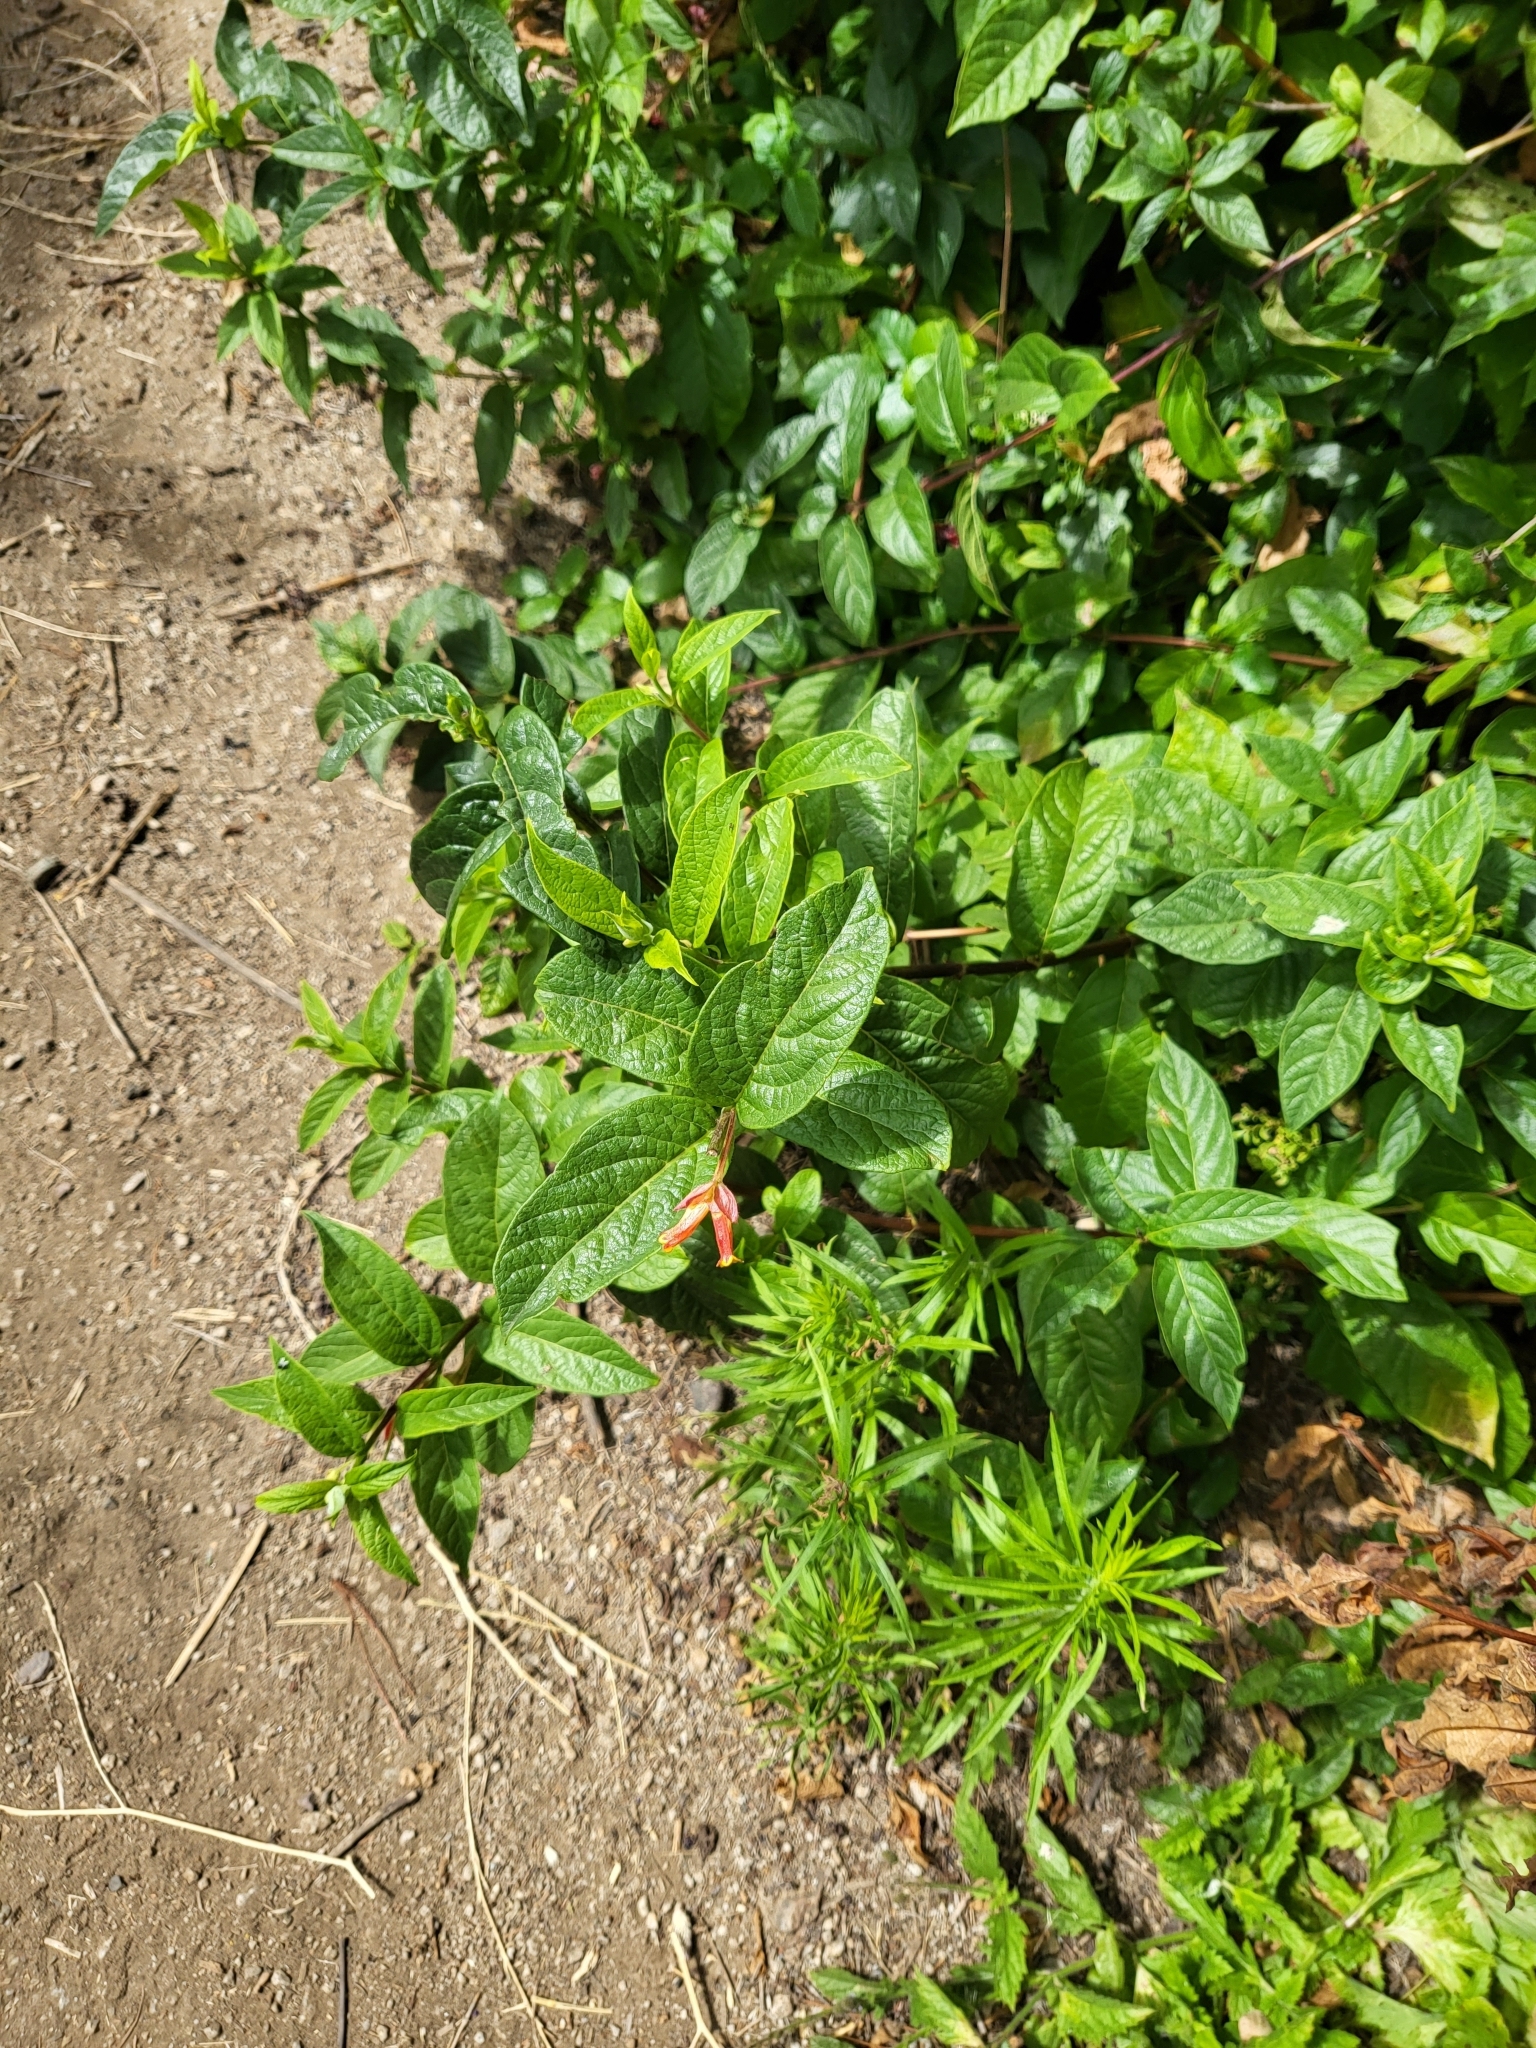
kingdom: Plantae
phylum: Tracheophyta
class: Magnoliopsida
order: Dipsacales
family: Caprifoliaceae
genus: Lonicera
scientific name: Lonicera involucrata
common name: Californian honeysuckle
